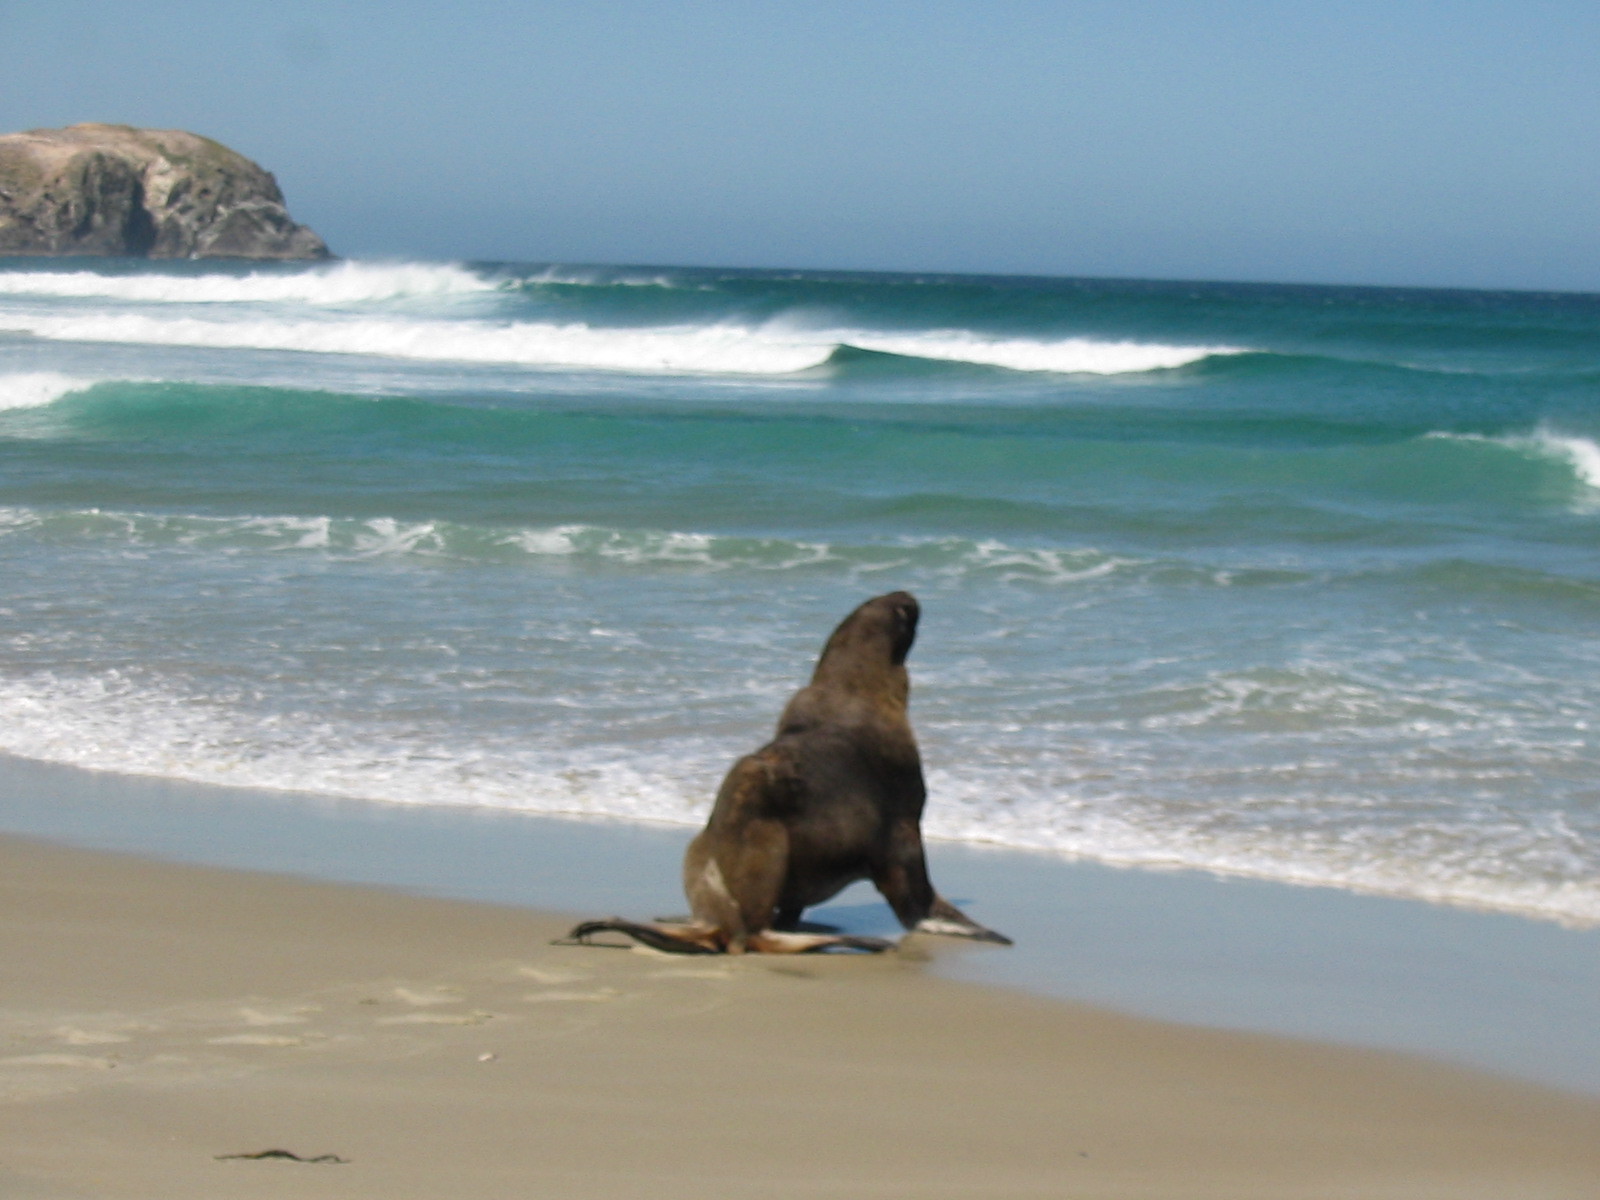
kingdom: Animalia
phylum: Chordata
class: Mammalia
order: Carnivora
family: Otariidae
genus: Phocarctos
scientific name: Phocarctos hookeri
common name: New zealand sea lion
